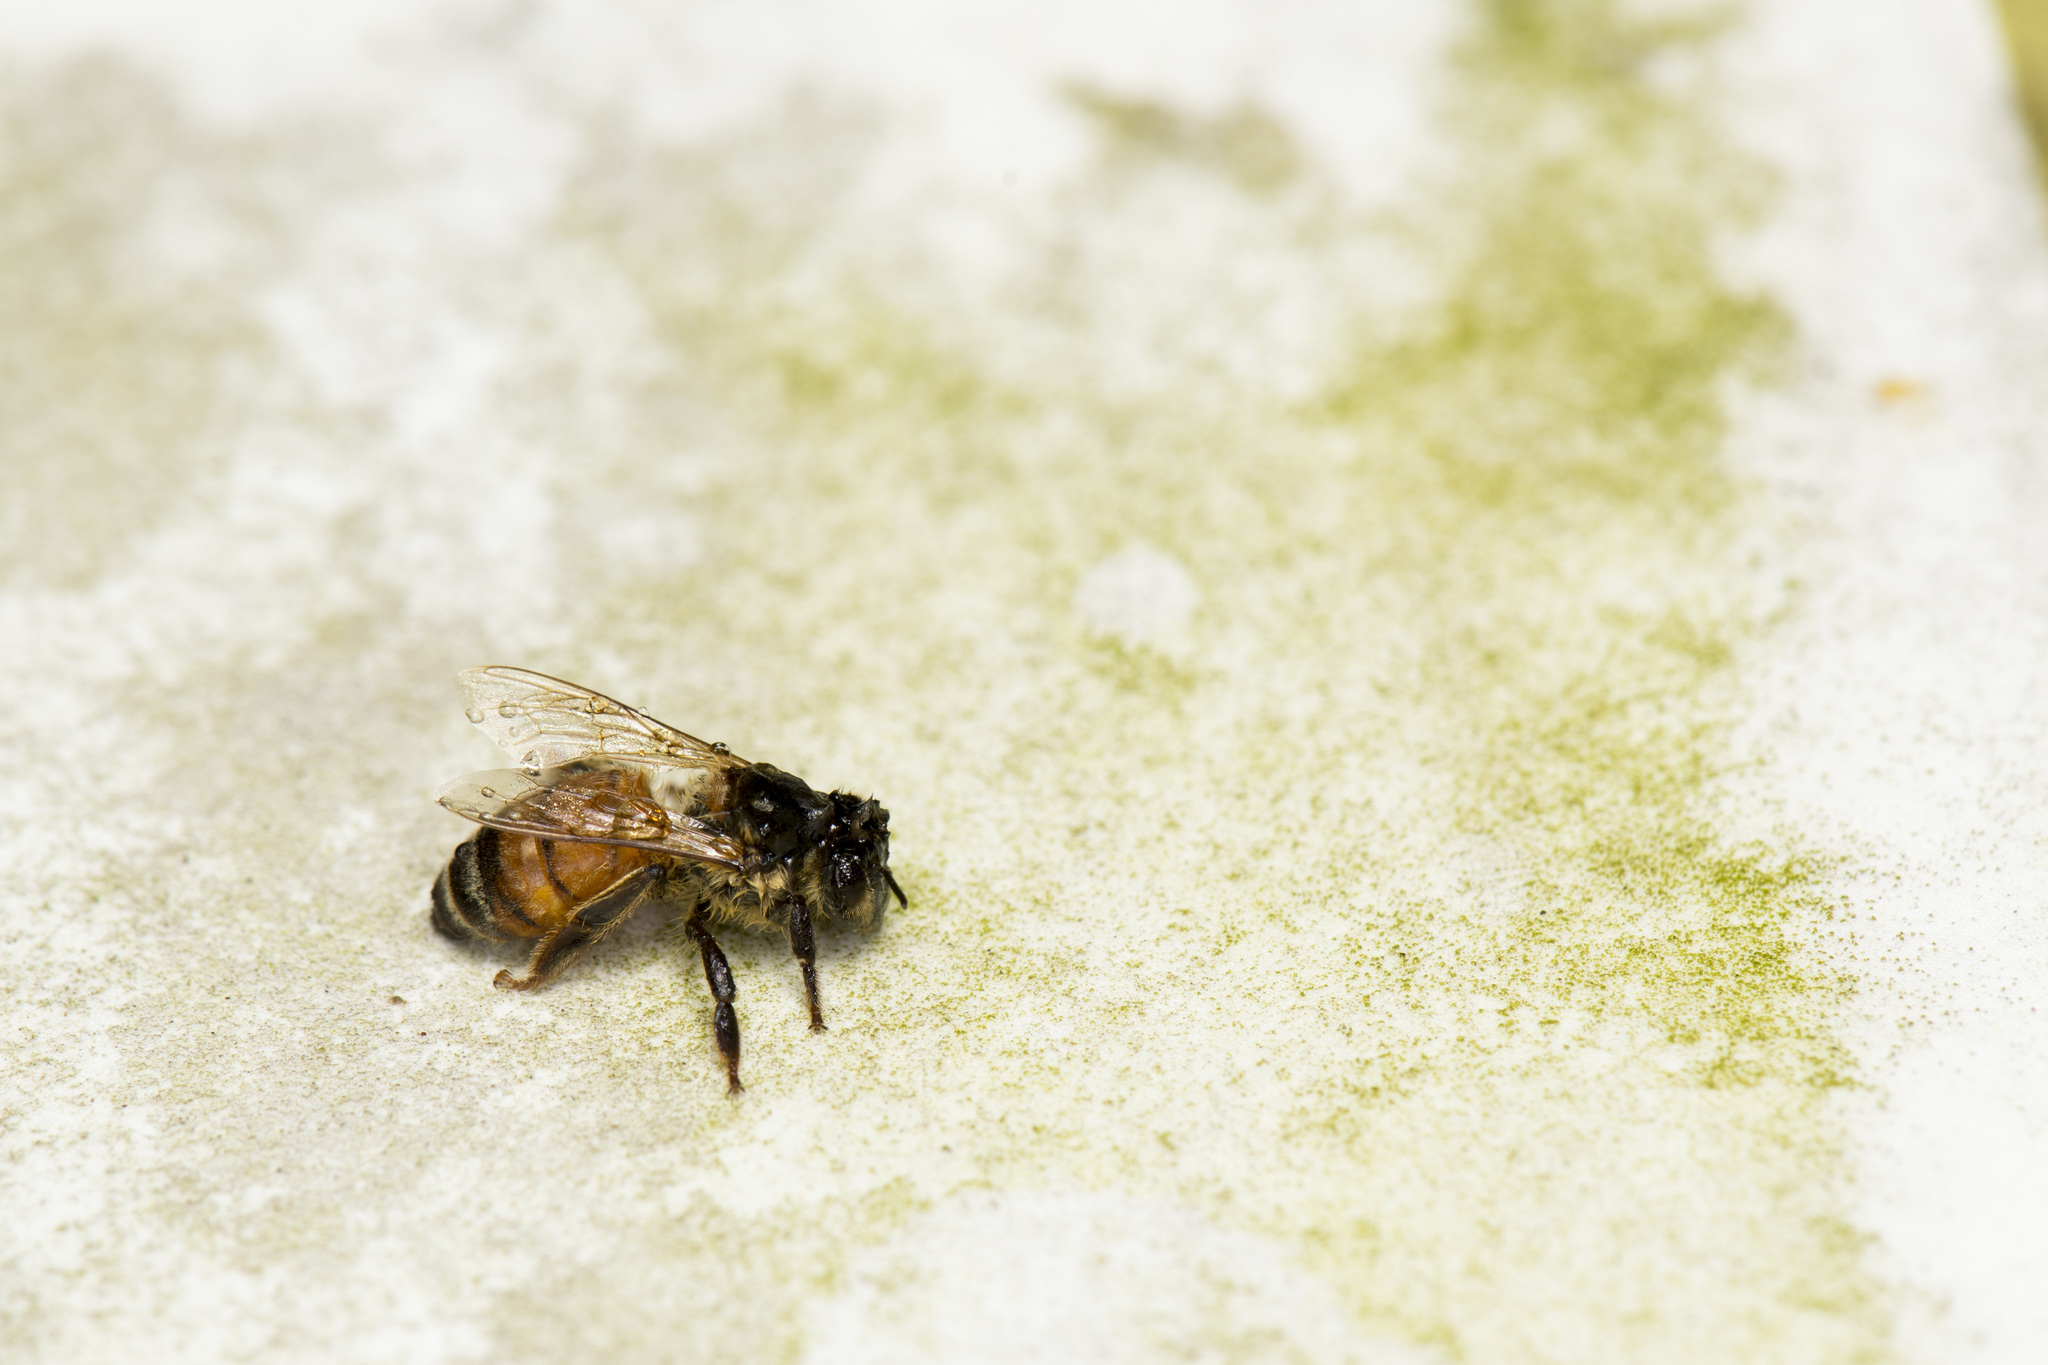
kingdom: Animalia
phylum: Arthropoda
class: Insecta
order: Hymenoptera
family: Apidae
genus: Apis
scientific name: Apis mellifera
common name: Honey bee
